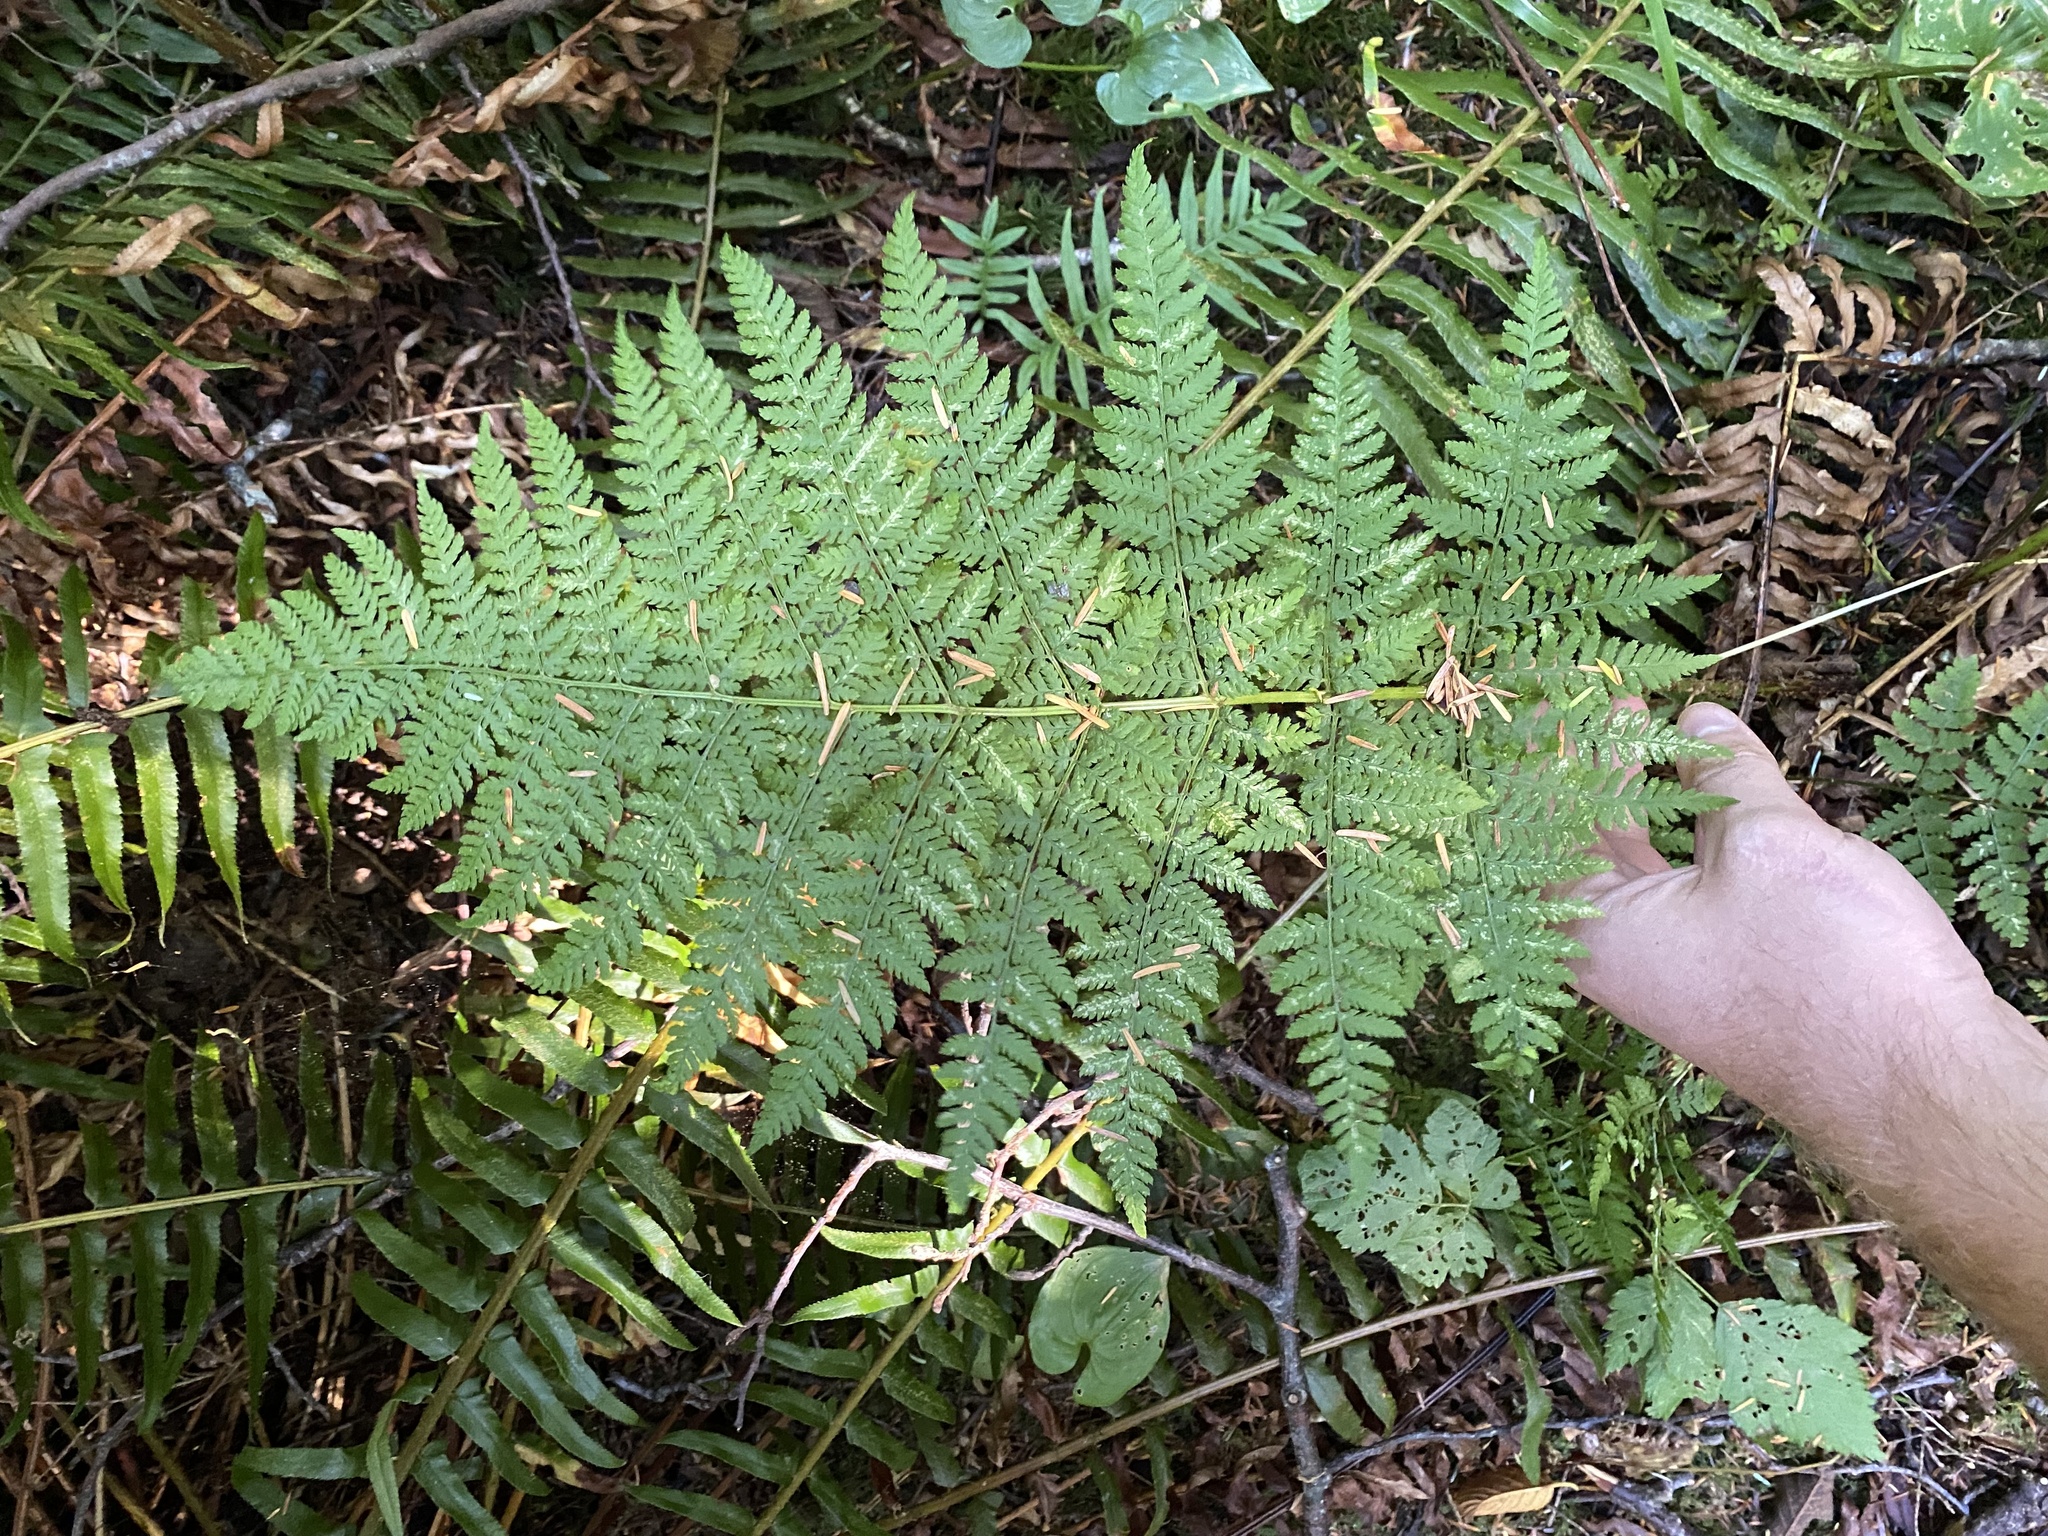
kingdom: Plantae
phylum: Tracheophyta
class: Polypodiopsida
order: Polypodiales
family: Dryopteridaceae
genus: Dryopteris
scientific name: Dryopteris expansa
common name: Northern buckler fern
